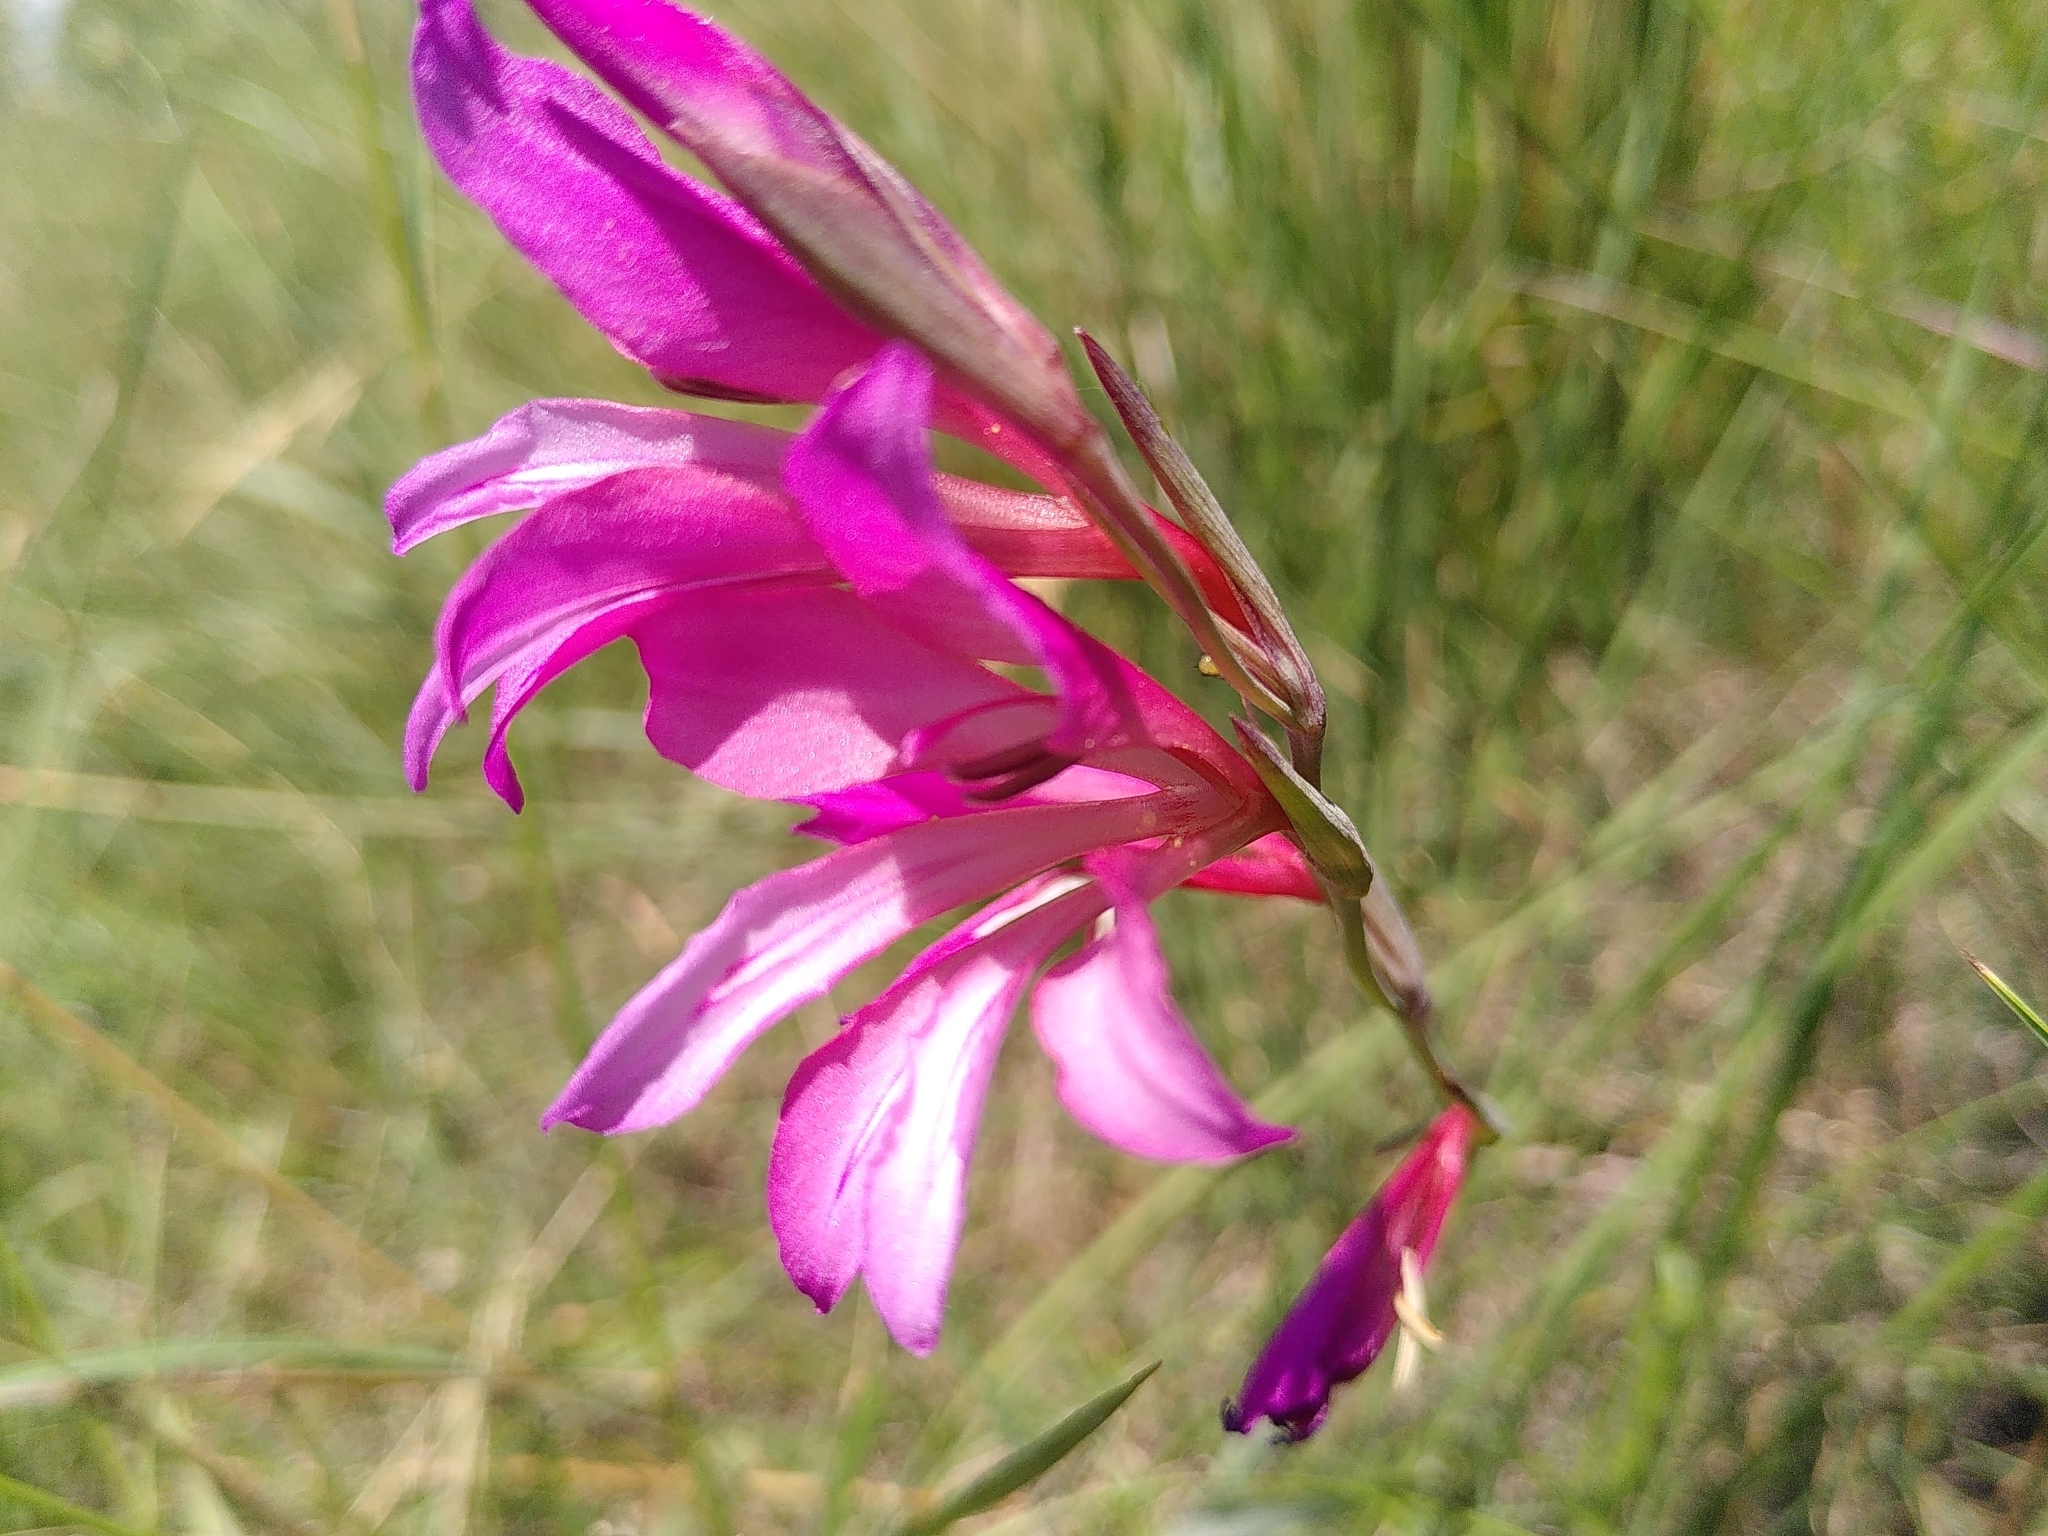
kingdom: Plantae
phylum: Tracheophyta
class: Liliopsida
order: Asparagales
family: Iridaceae
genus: Gladiolus
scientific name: Gladiolus dubius
